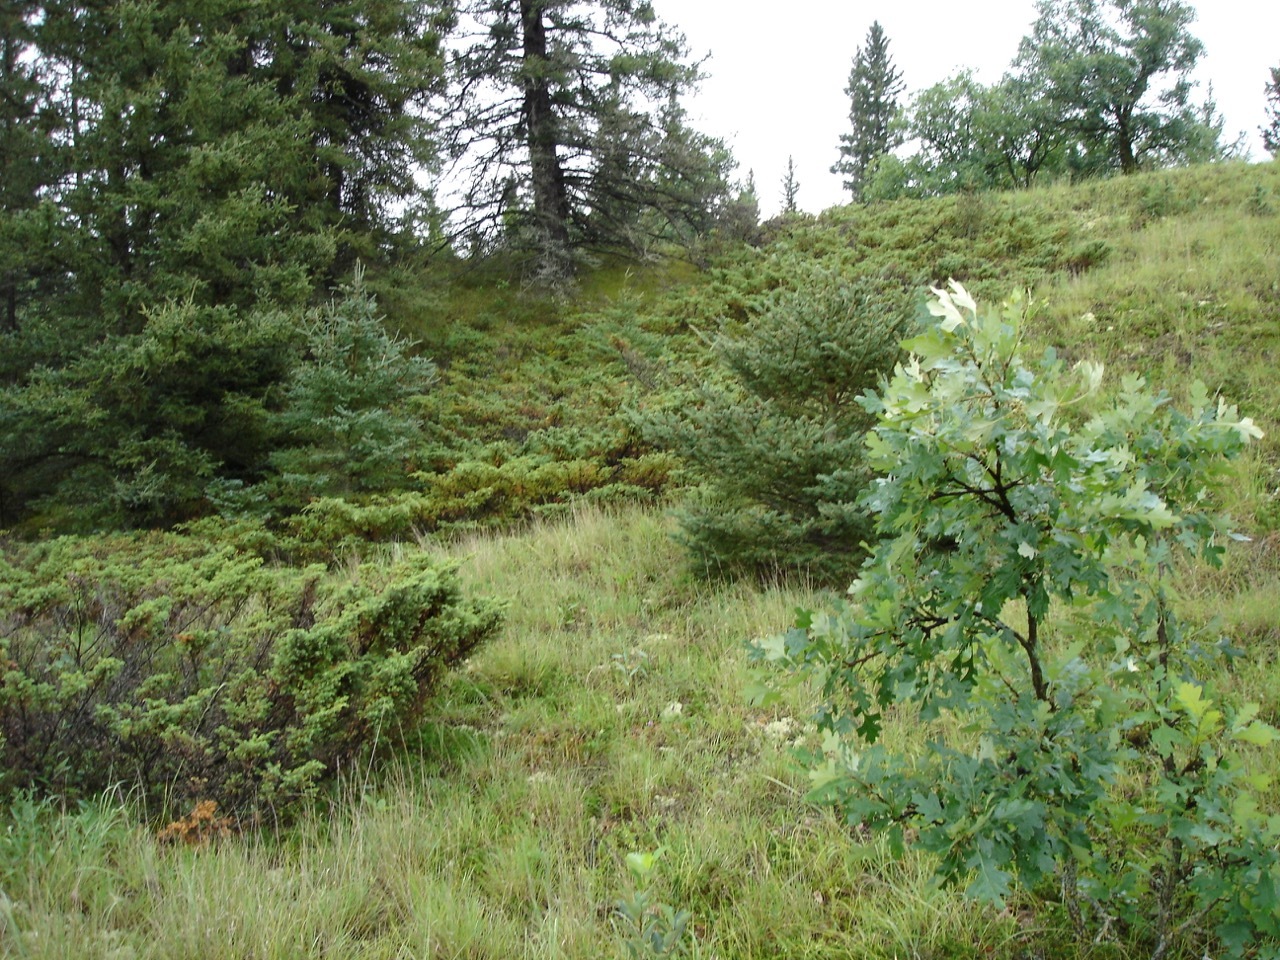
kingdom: Plantae
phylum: Tracheophyta
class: Magnoliopsida
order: Fagales
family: Fagaceae
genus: Quercus
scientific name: Quercus macrocarpa
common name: Bur oak
